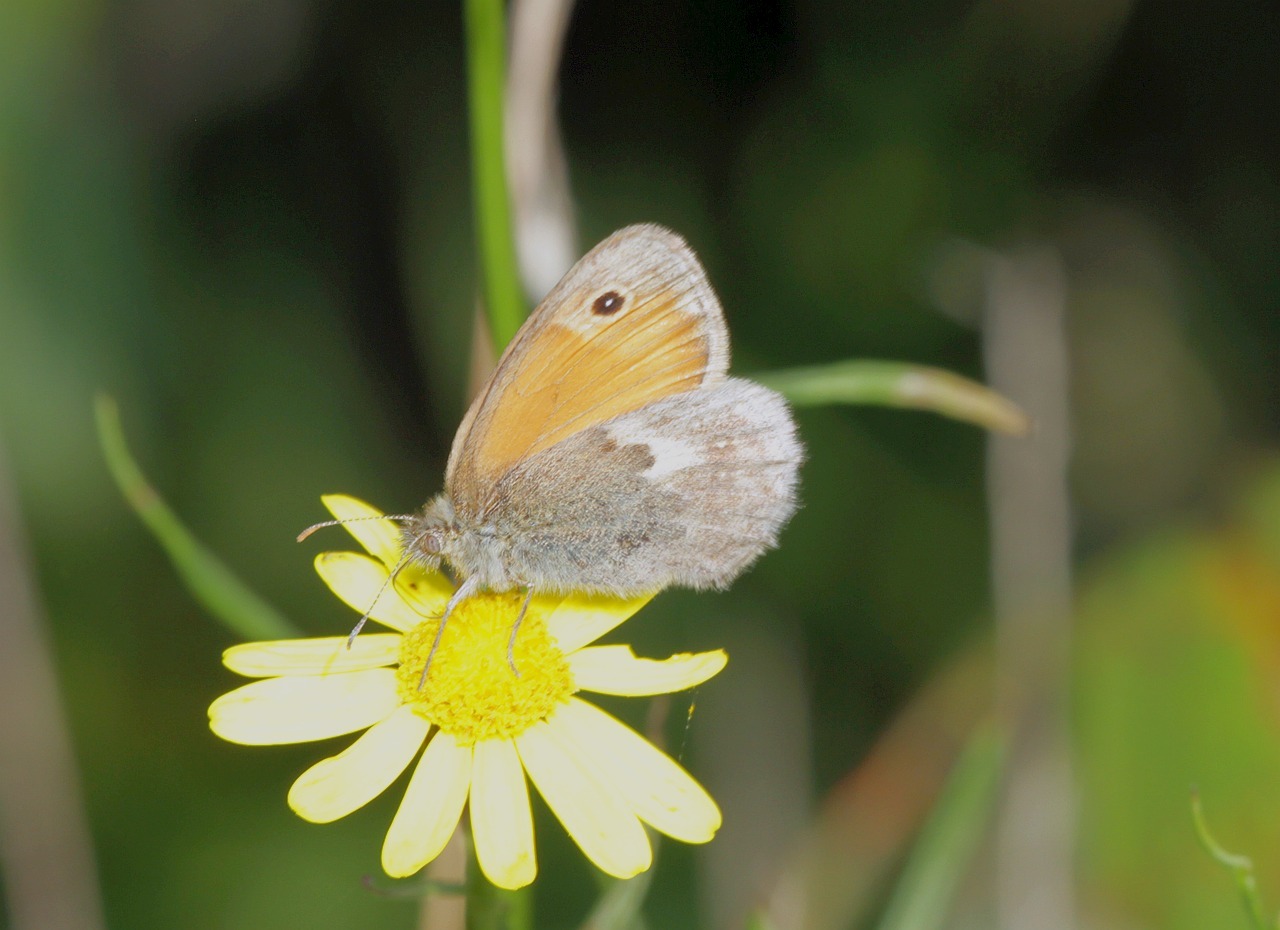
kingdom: Animalia
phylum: Arthropoda
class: Insecta
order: Lepidoptera
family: Nymphalidae
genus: Coenonympha
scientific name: Coenonympha pamphilus
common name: Small heath
